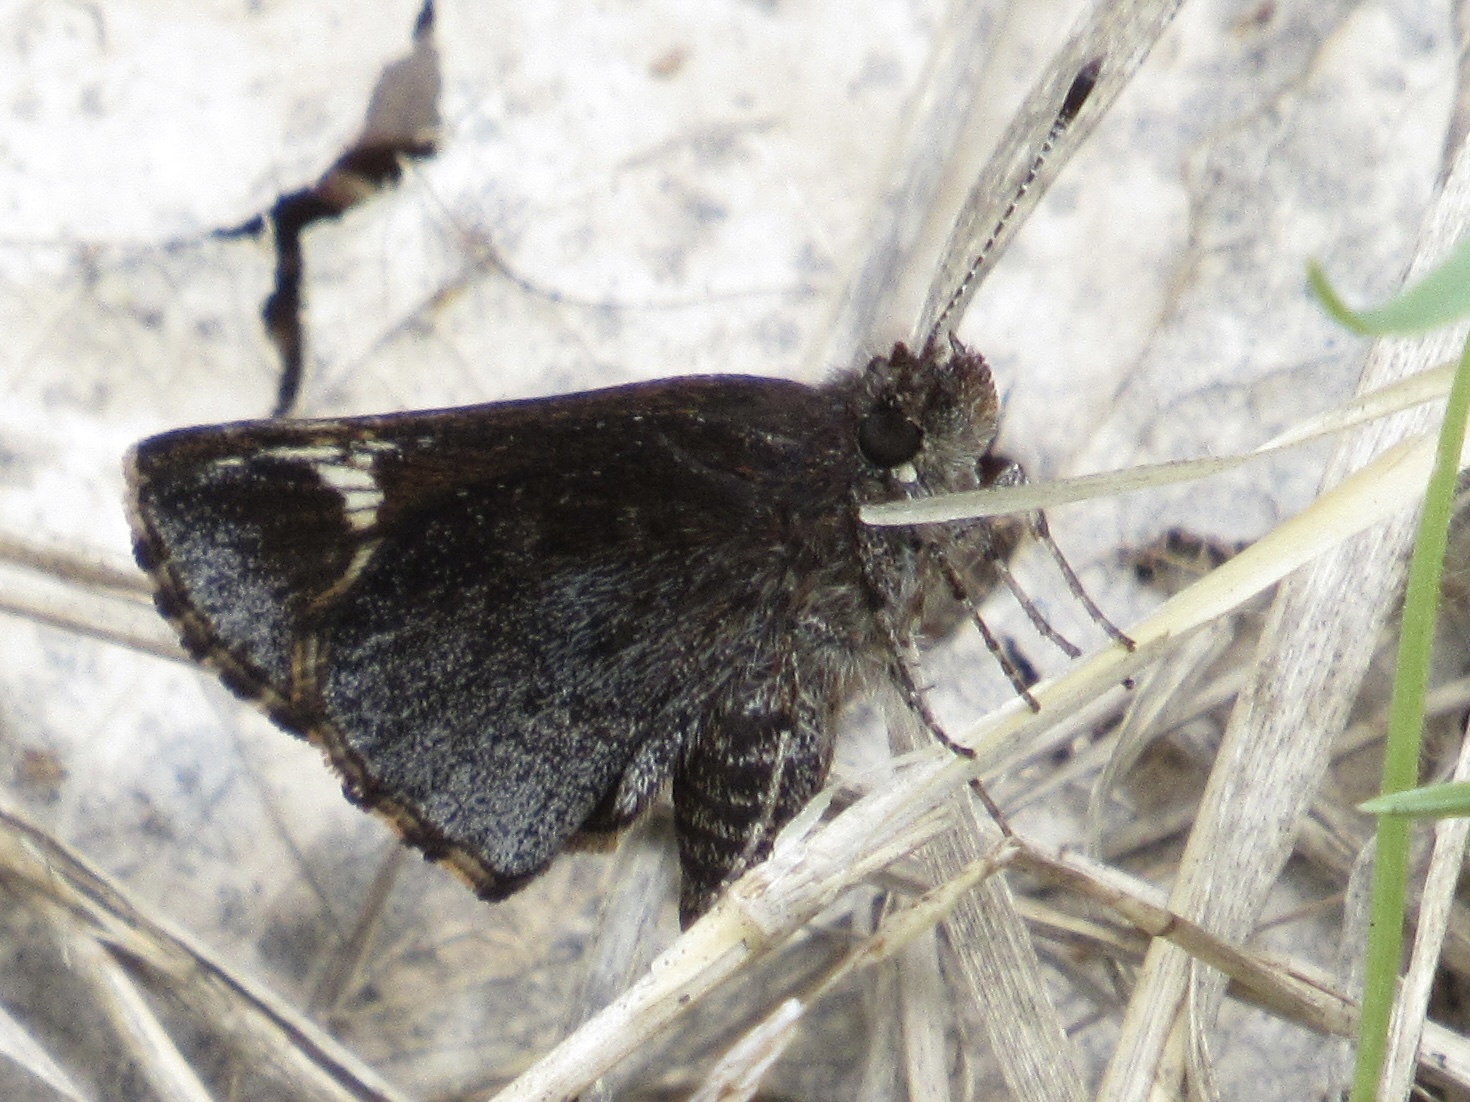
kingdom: Animalia
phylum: Arthropoda
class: Insecta
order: Lepidoptera
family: Hesperiidae
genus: Mastor
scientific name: Mastor vialis
